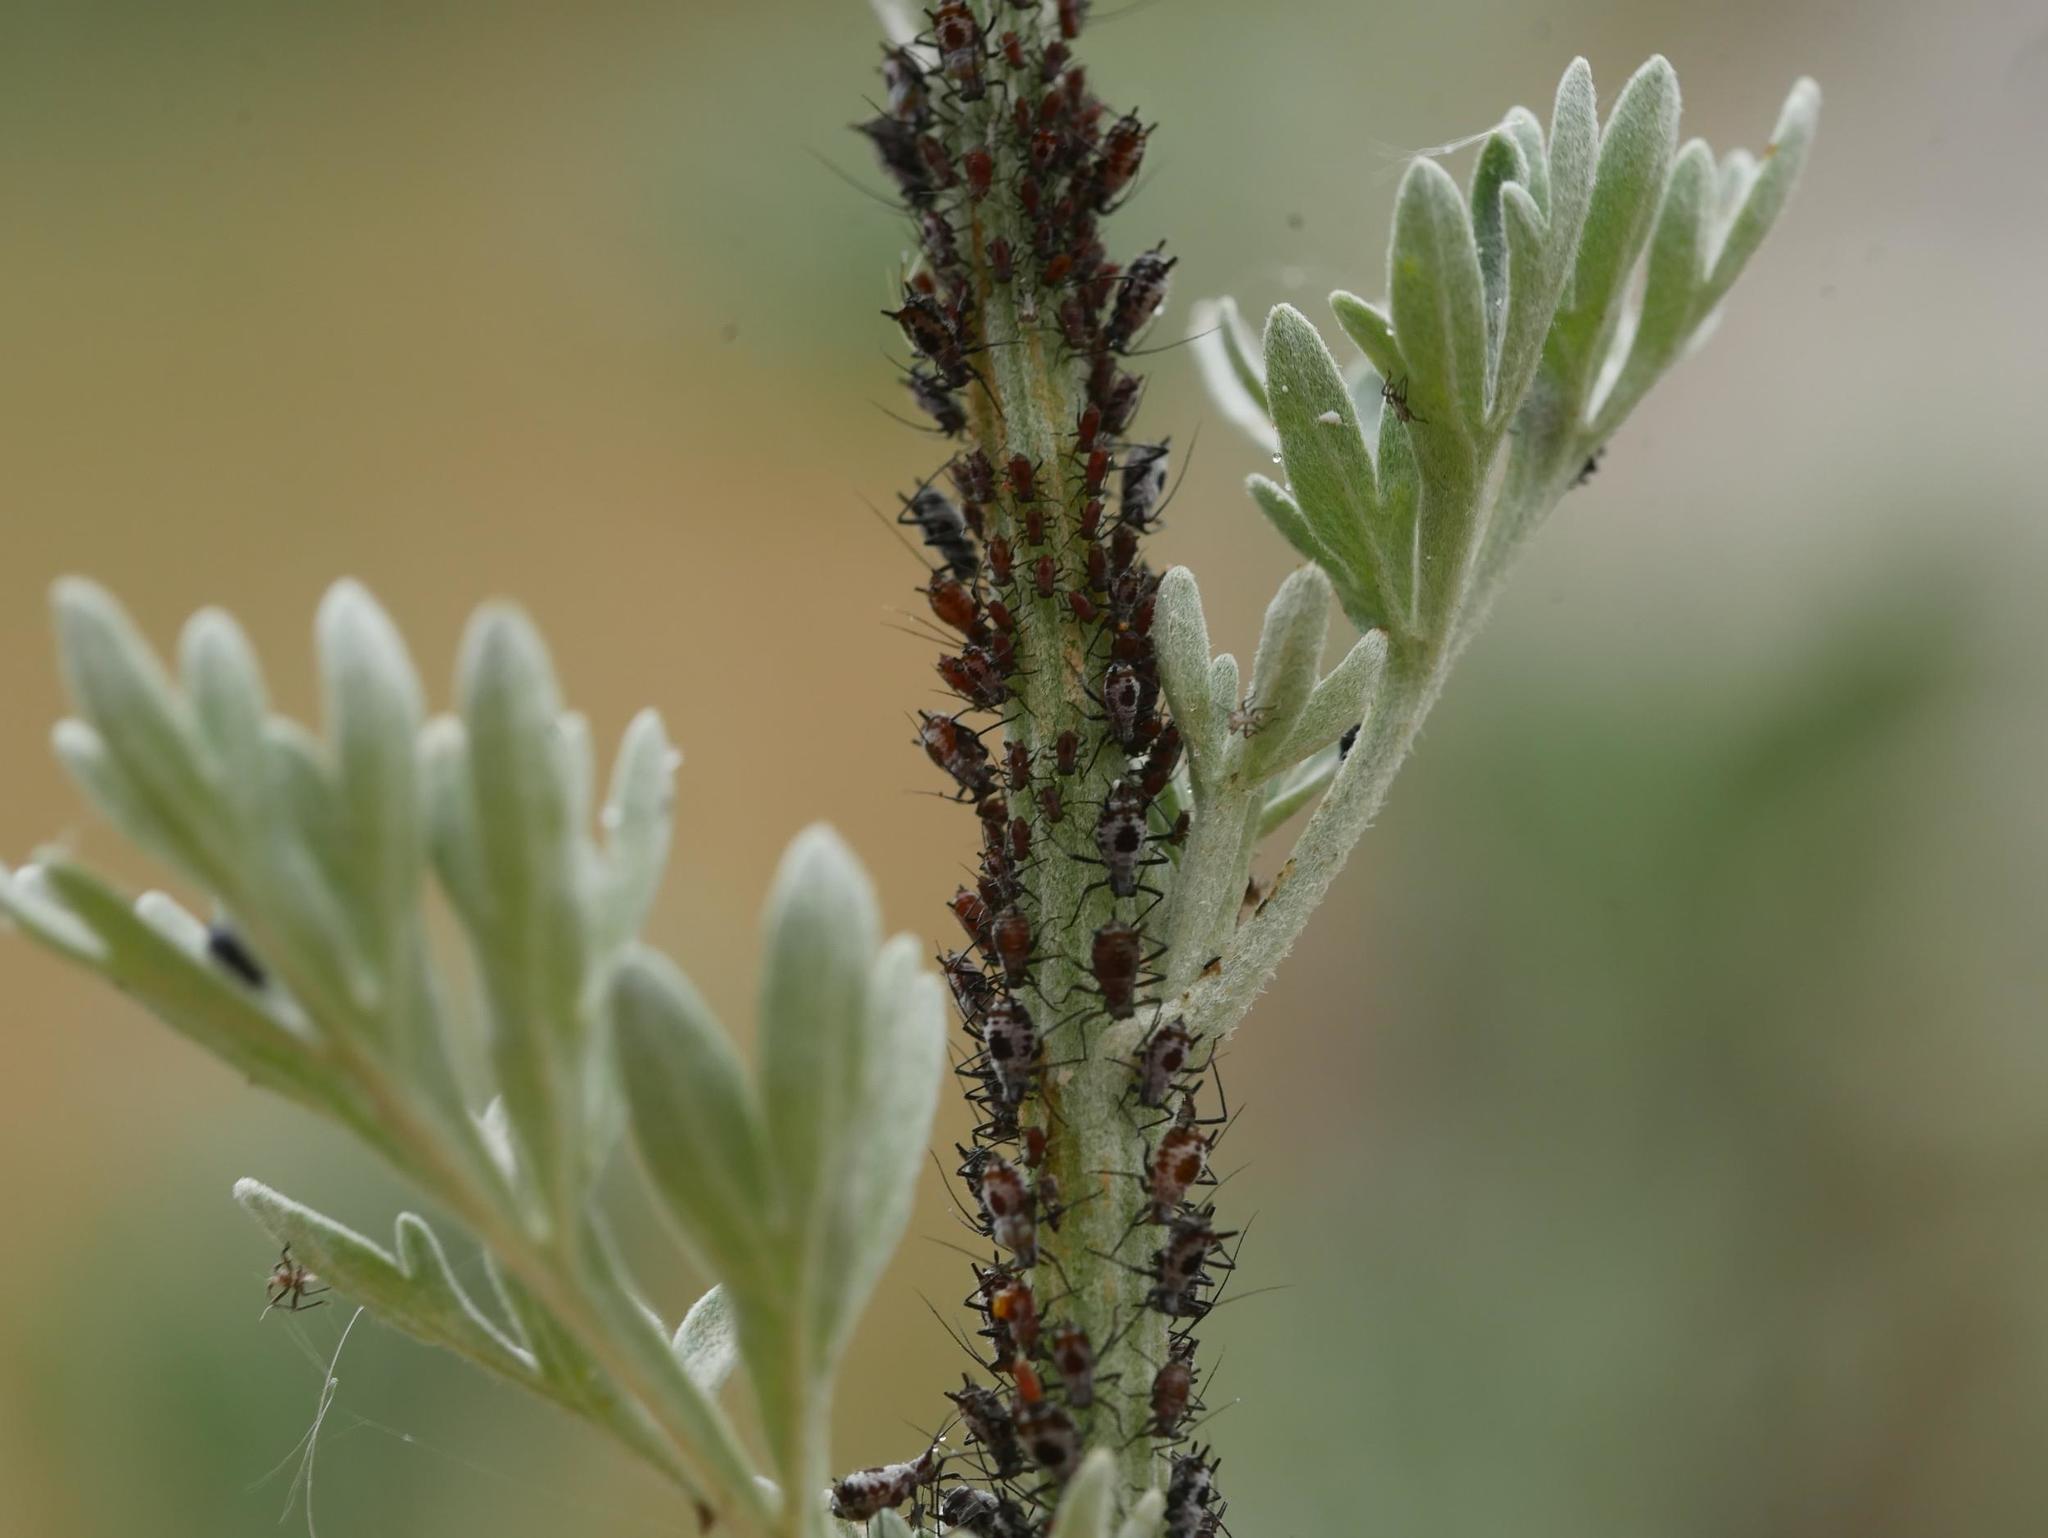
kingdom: Animalia
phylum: Arthropoda
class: Insecta
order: Hemiptera
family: Aphididae
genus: Macrosiphoniella
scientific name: Macrosiphoniella absinthii
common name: Aphid
